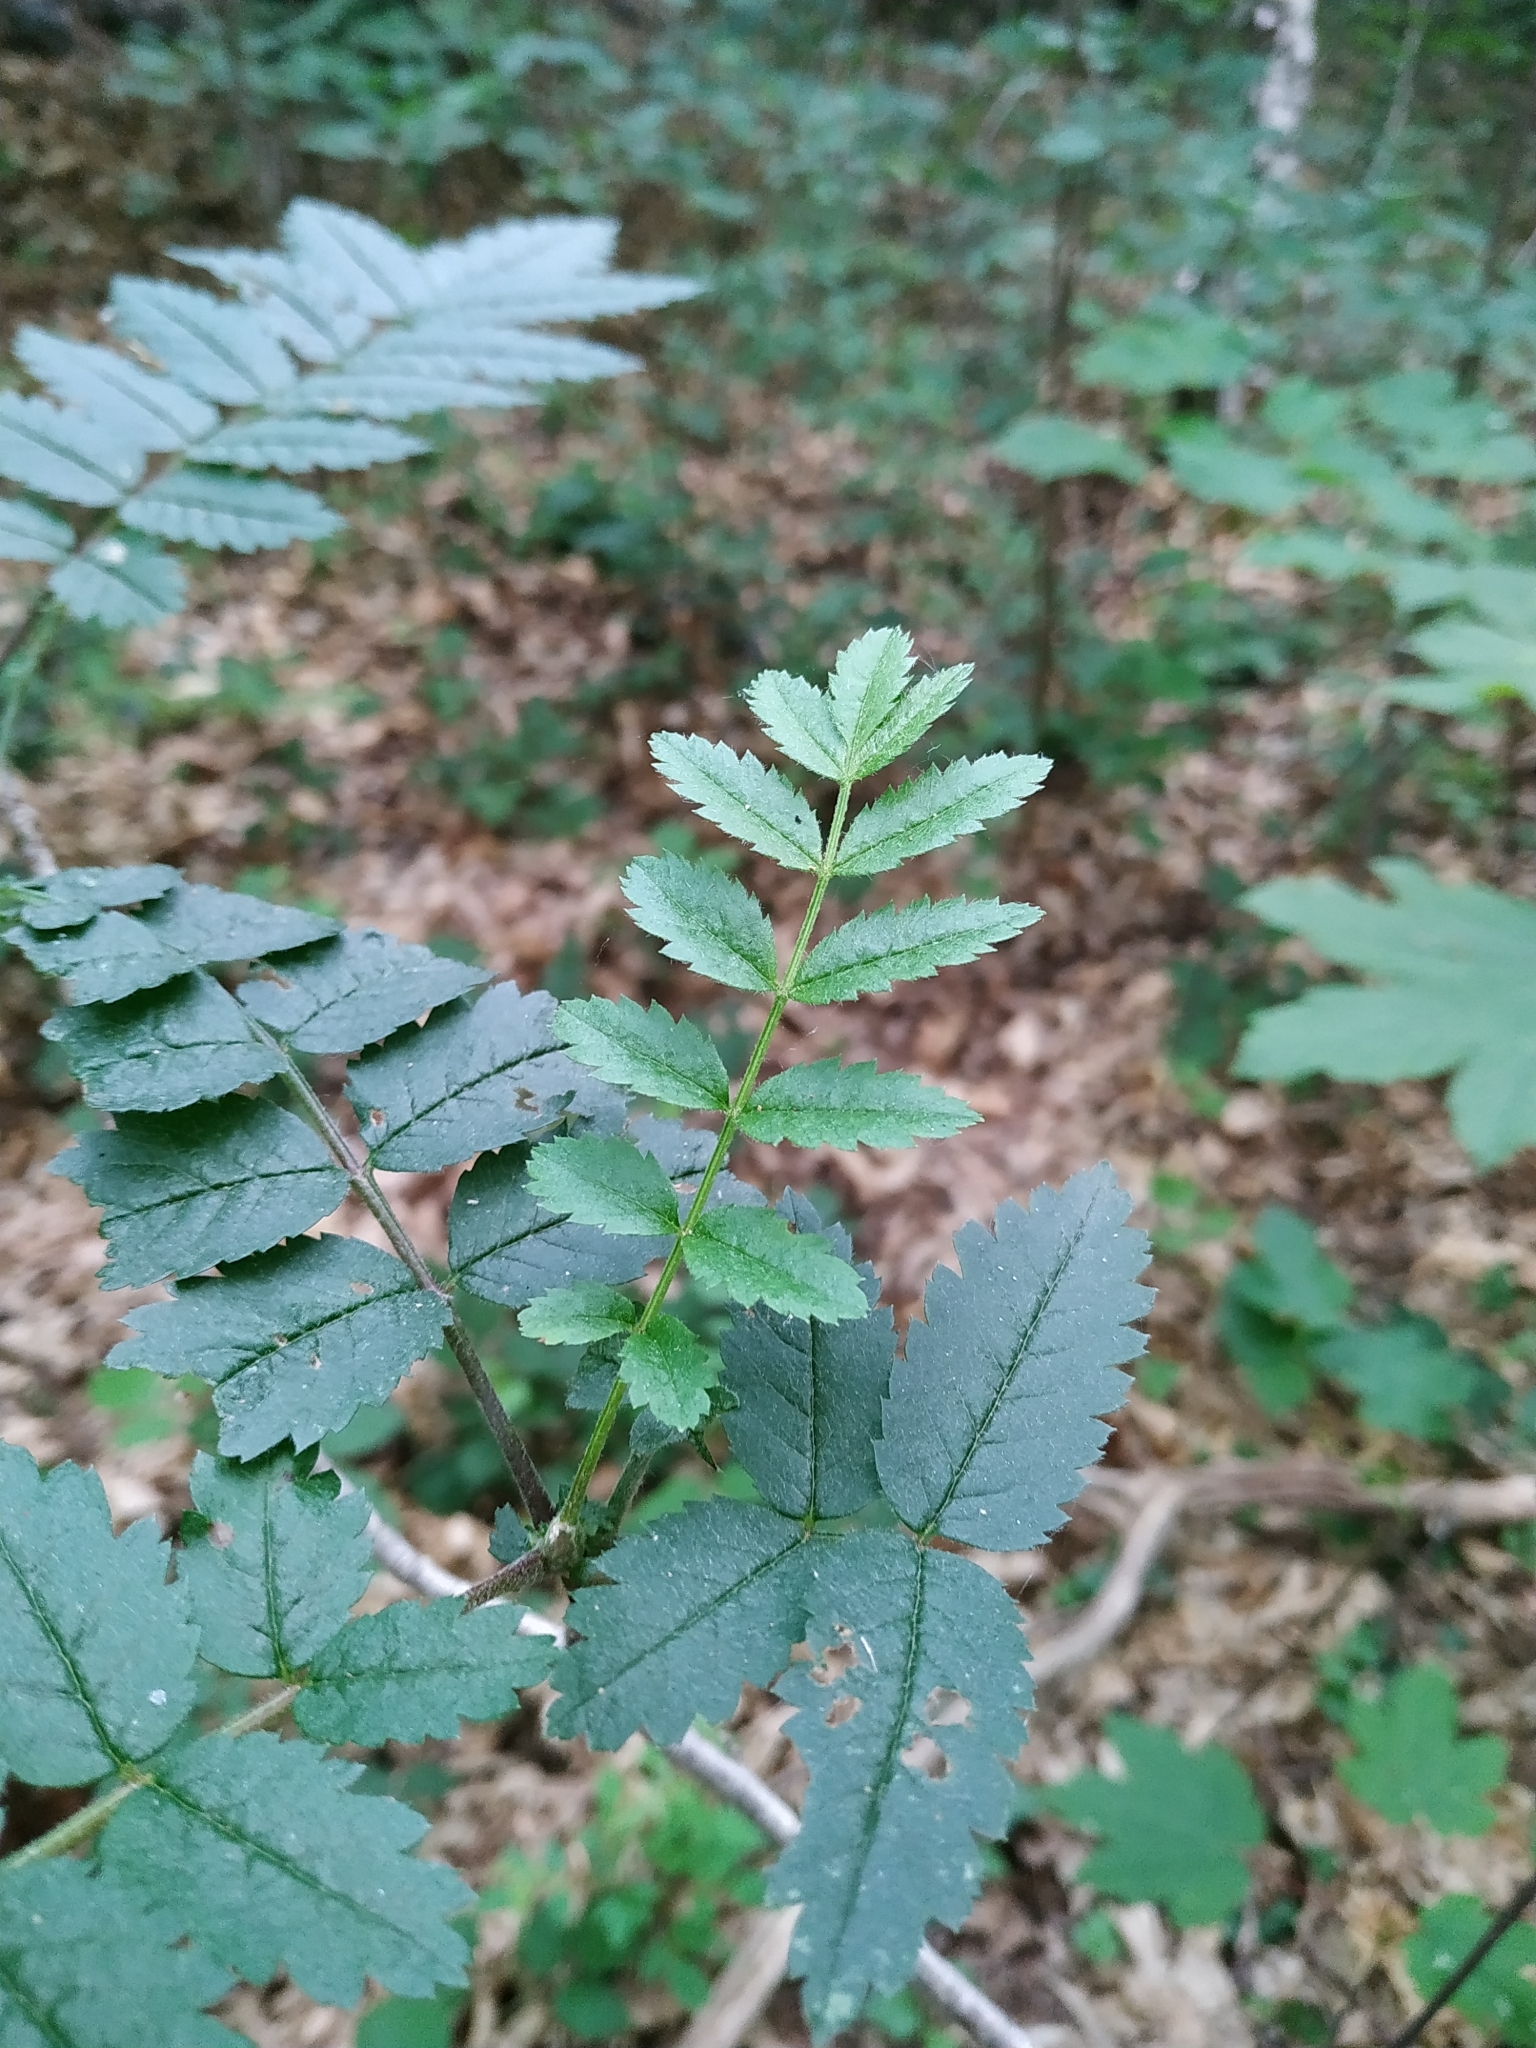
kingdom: Plantae
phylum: Tracheophyta
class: Magnoliopsida
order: Rosales
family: Rosaceae
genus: Sorbus
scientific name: Sorbus aucuparia
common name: Rowan
